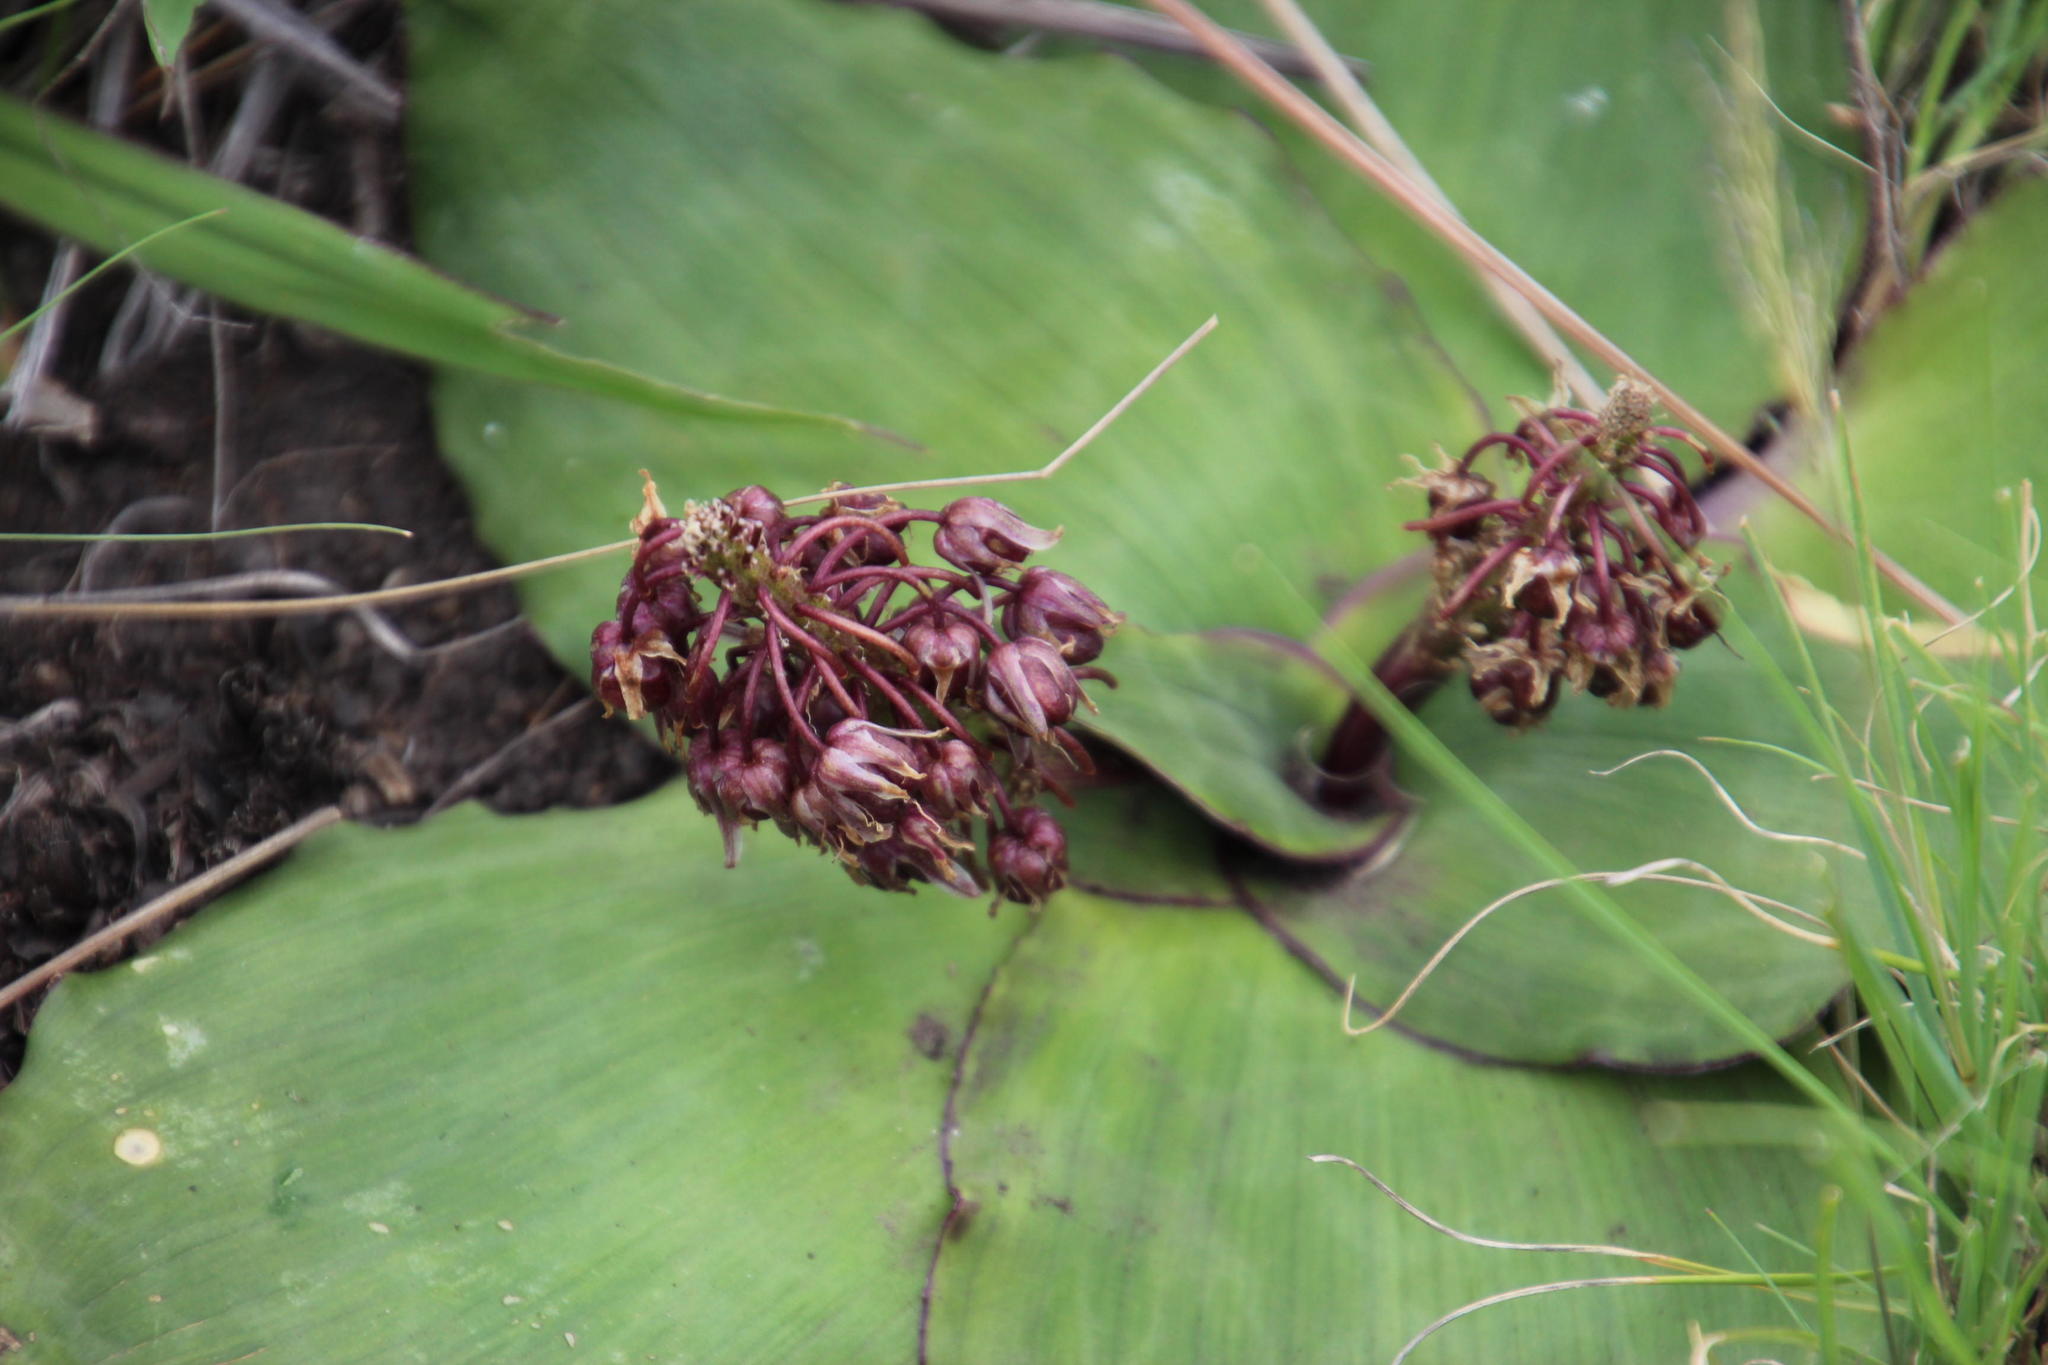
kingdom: Plantae
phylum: Tracheophyta
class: Liliopsida
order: Asparagales
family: Asparagaceae
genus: Ledebouria
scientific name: Ledebouria ovatifolia
